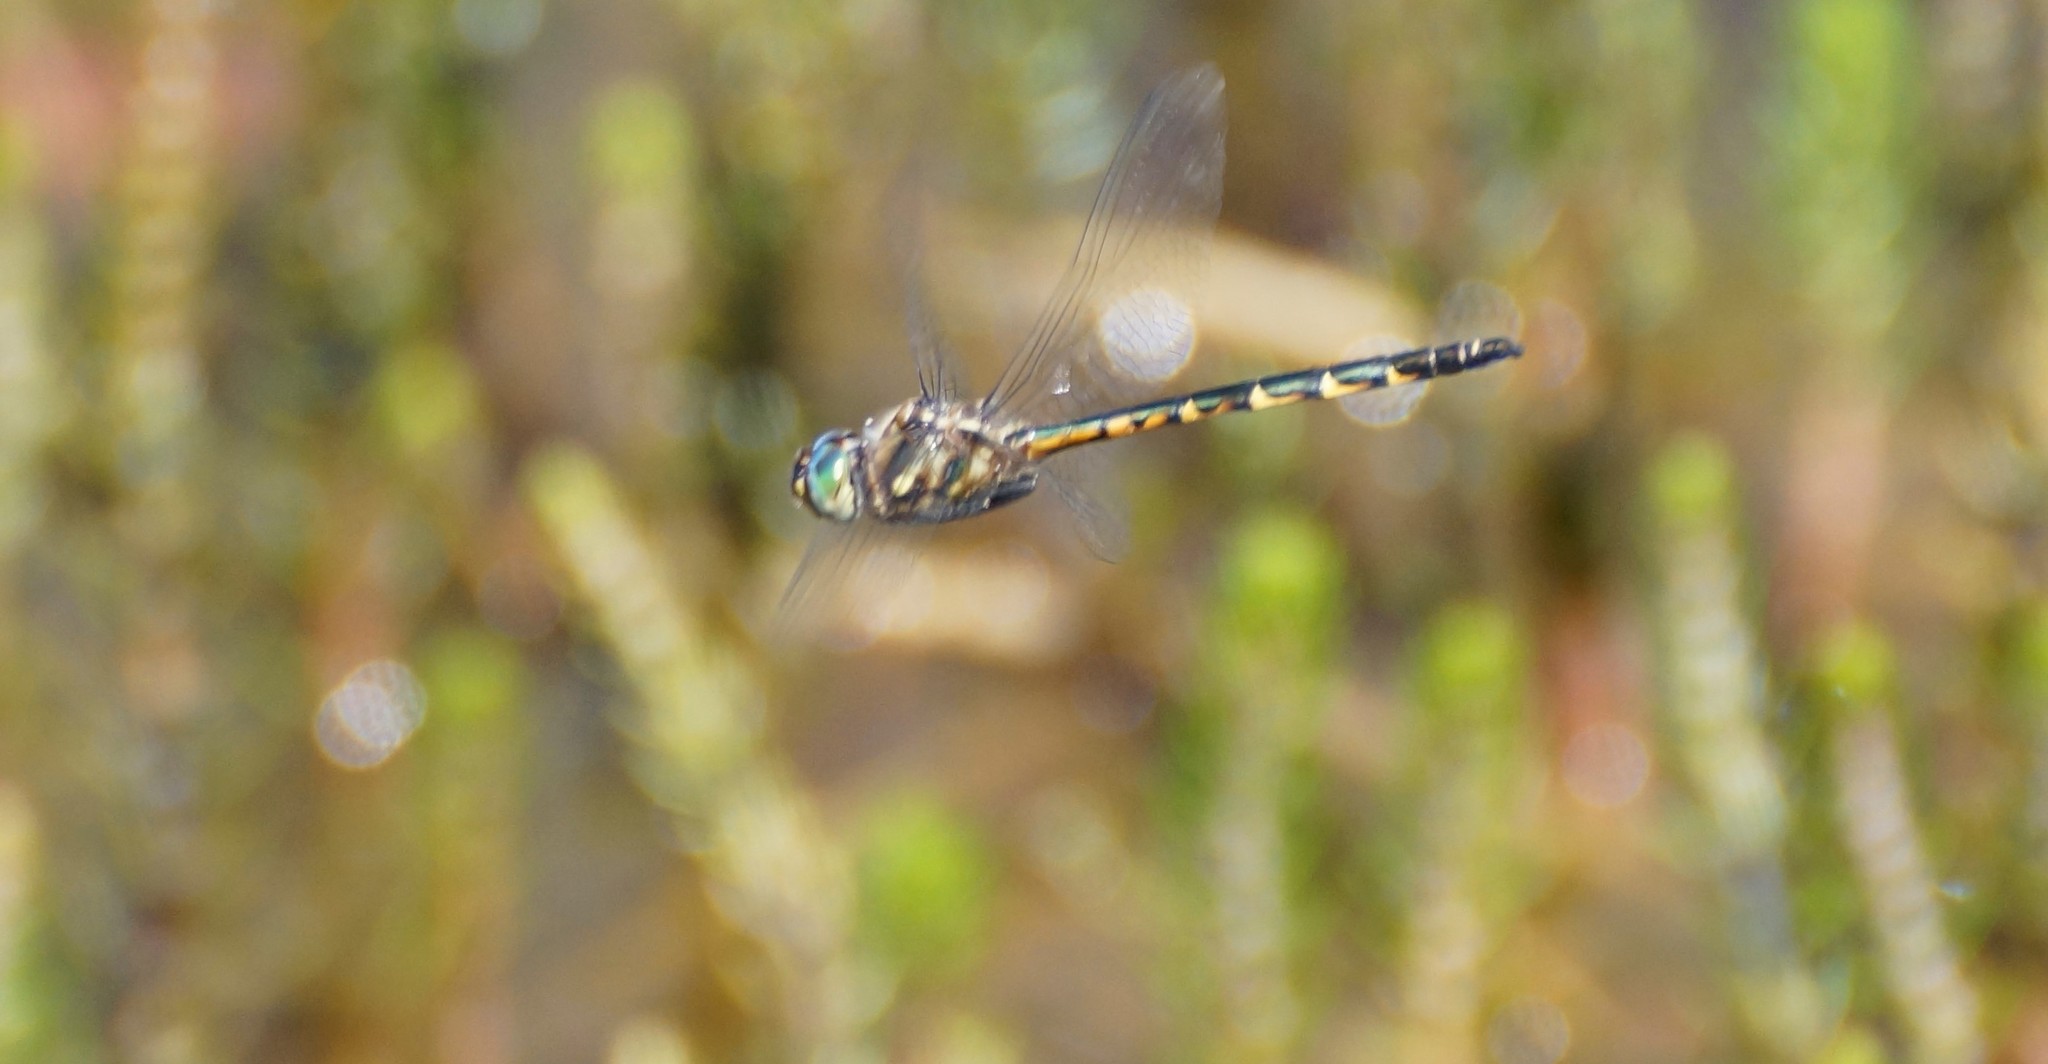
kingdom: Animalia
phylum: Arthropoda
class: Insecta
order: Odonata
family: Corduliidae
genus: Hemicordulia
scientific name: Hemicordulia australiae
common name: Sentry dragonfly
